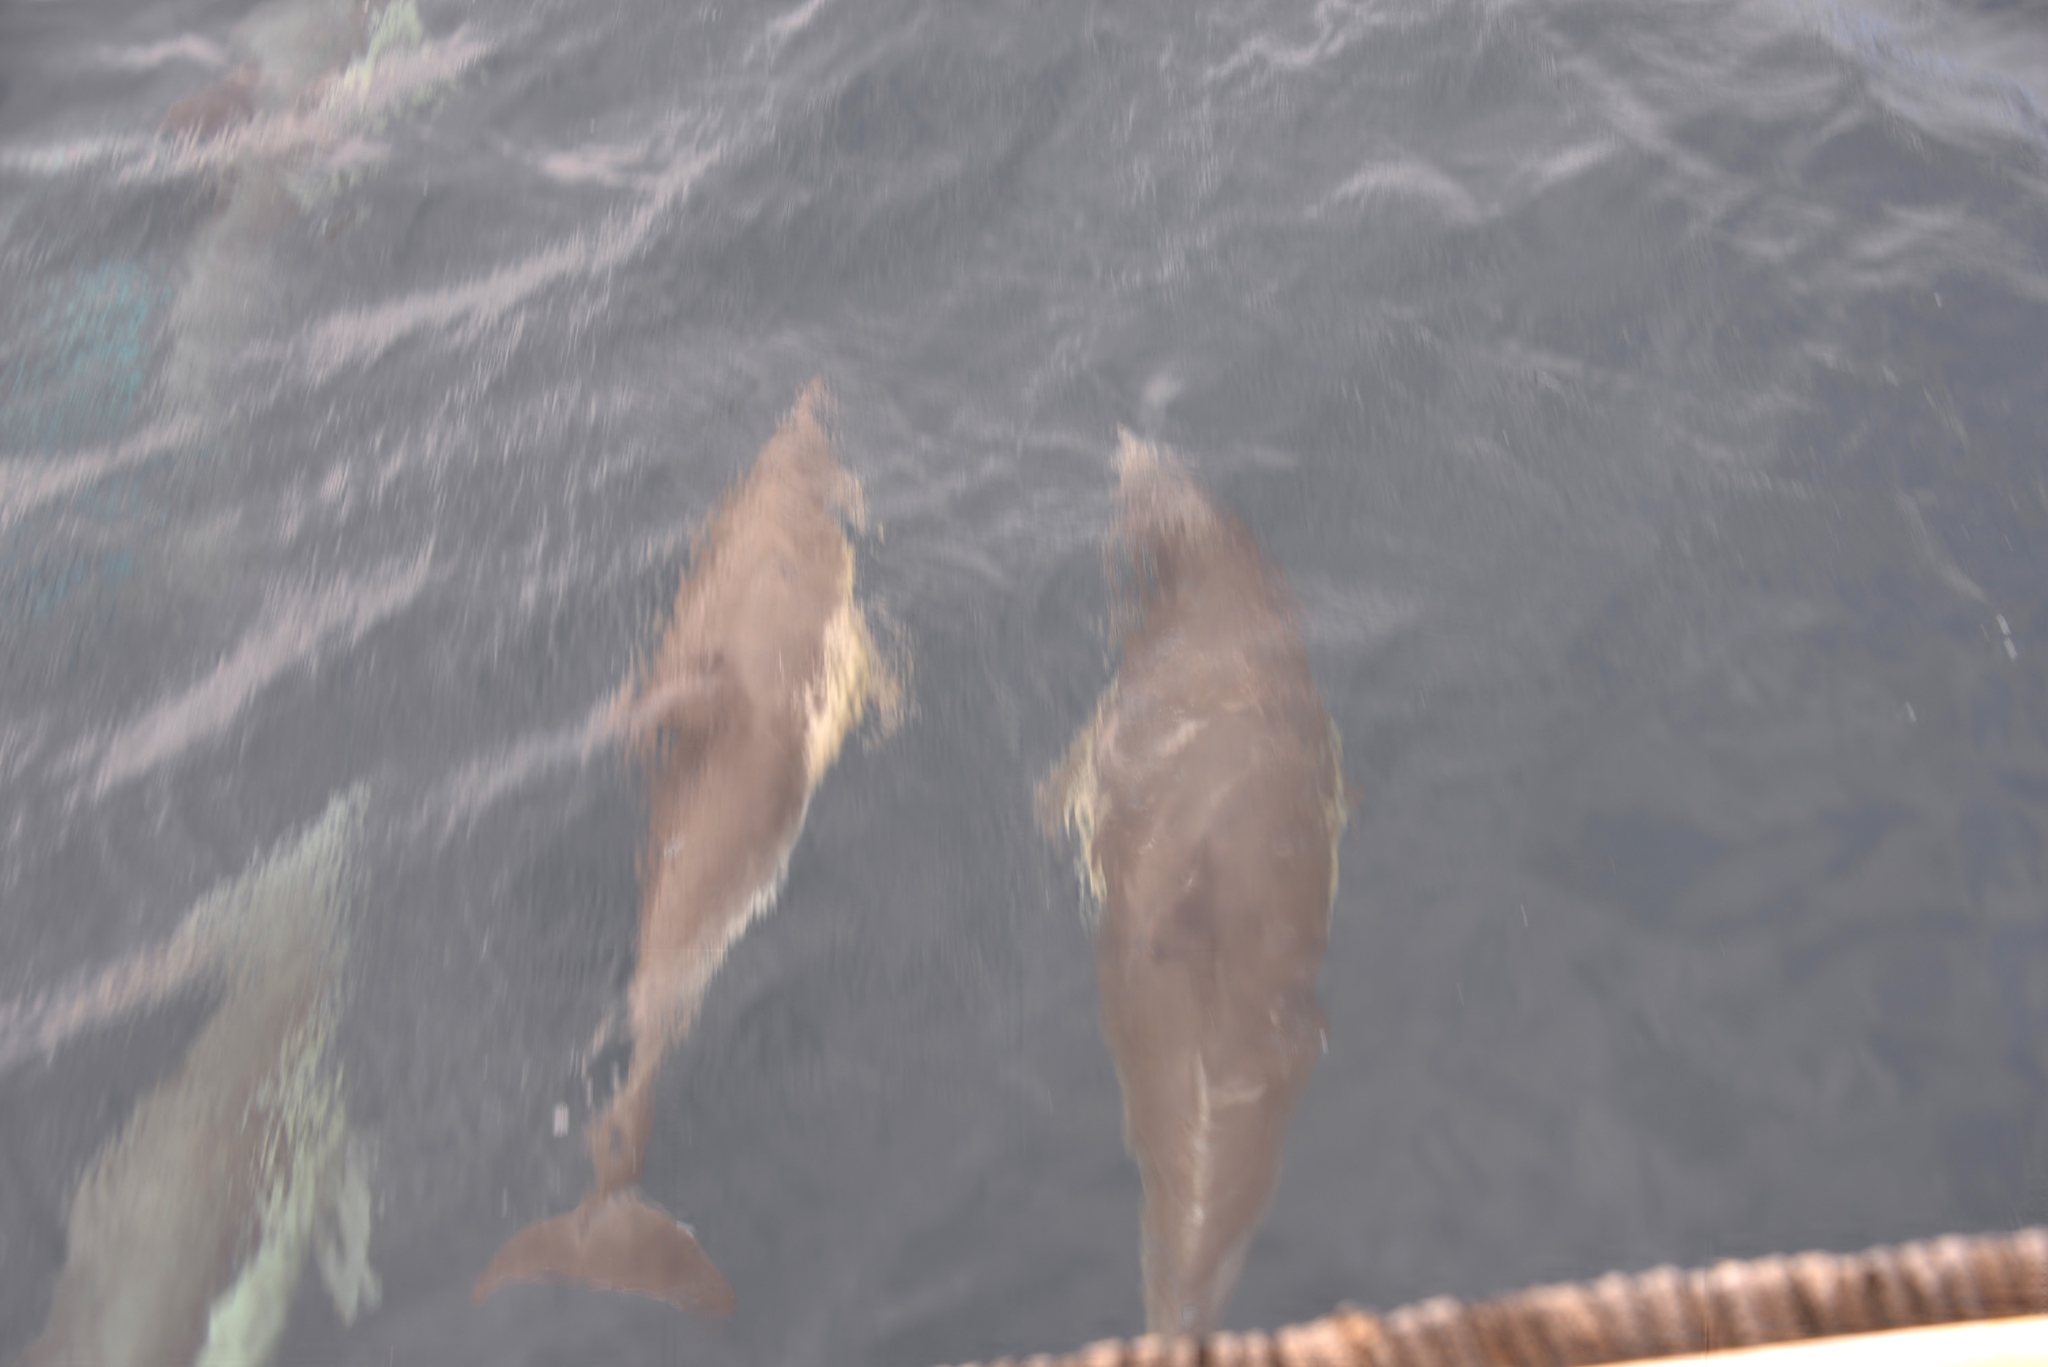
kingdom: Animalia
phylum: Chordata
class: Mammalia
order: Cetacea
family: Delphinidae
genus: Delphinus
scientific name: Delphinus delphis
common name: Common dolphin
